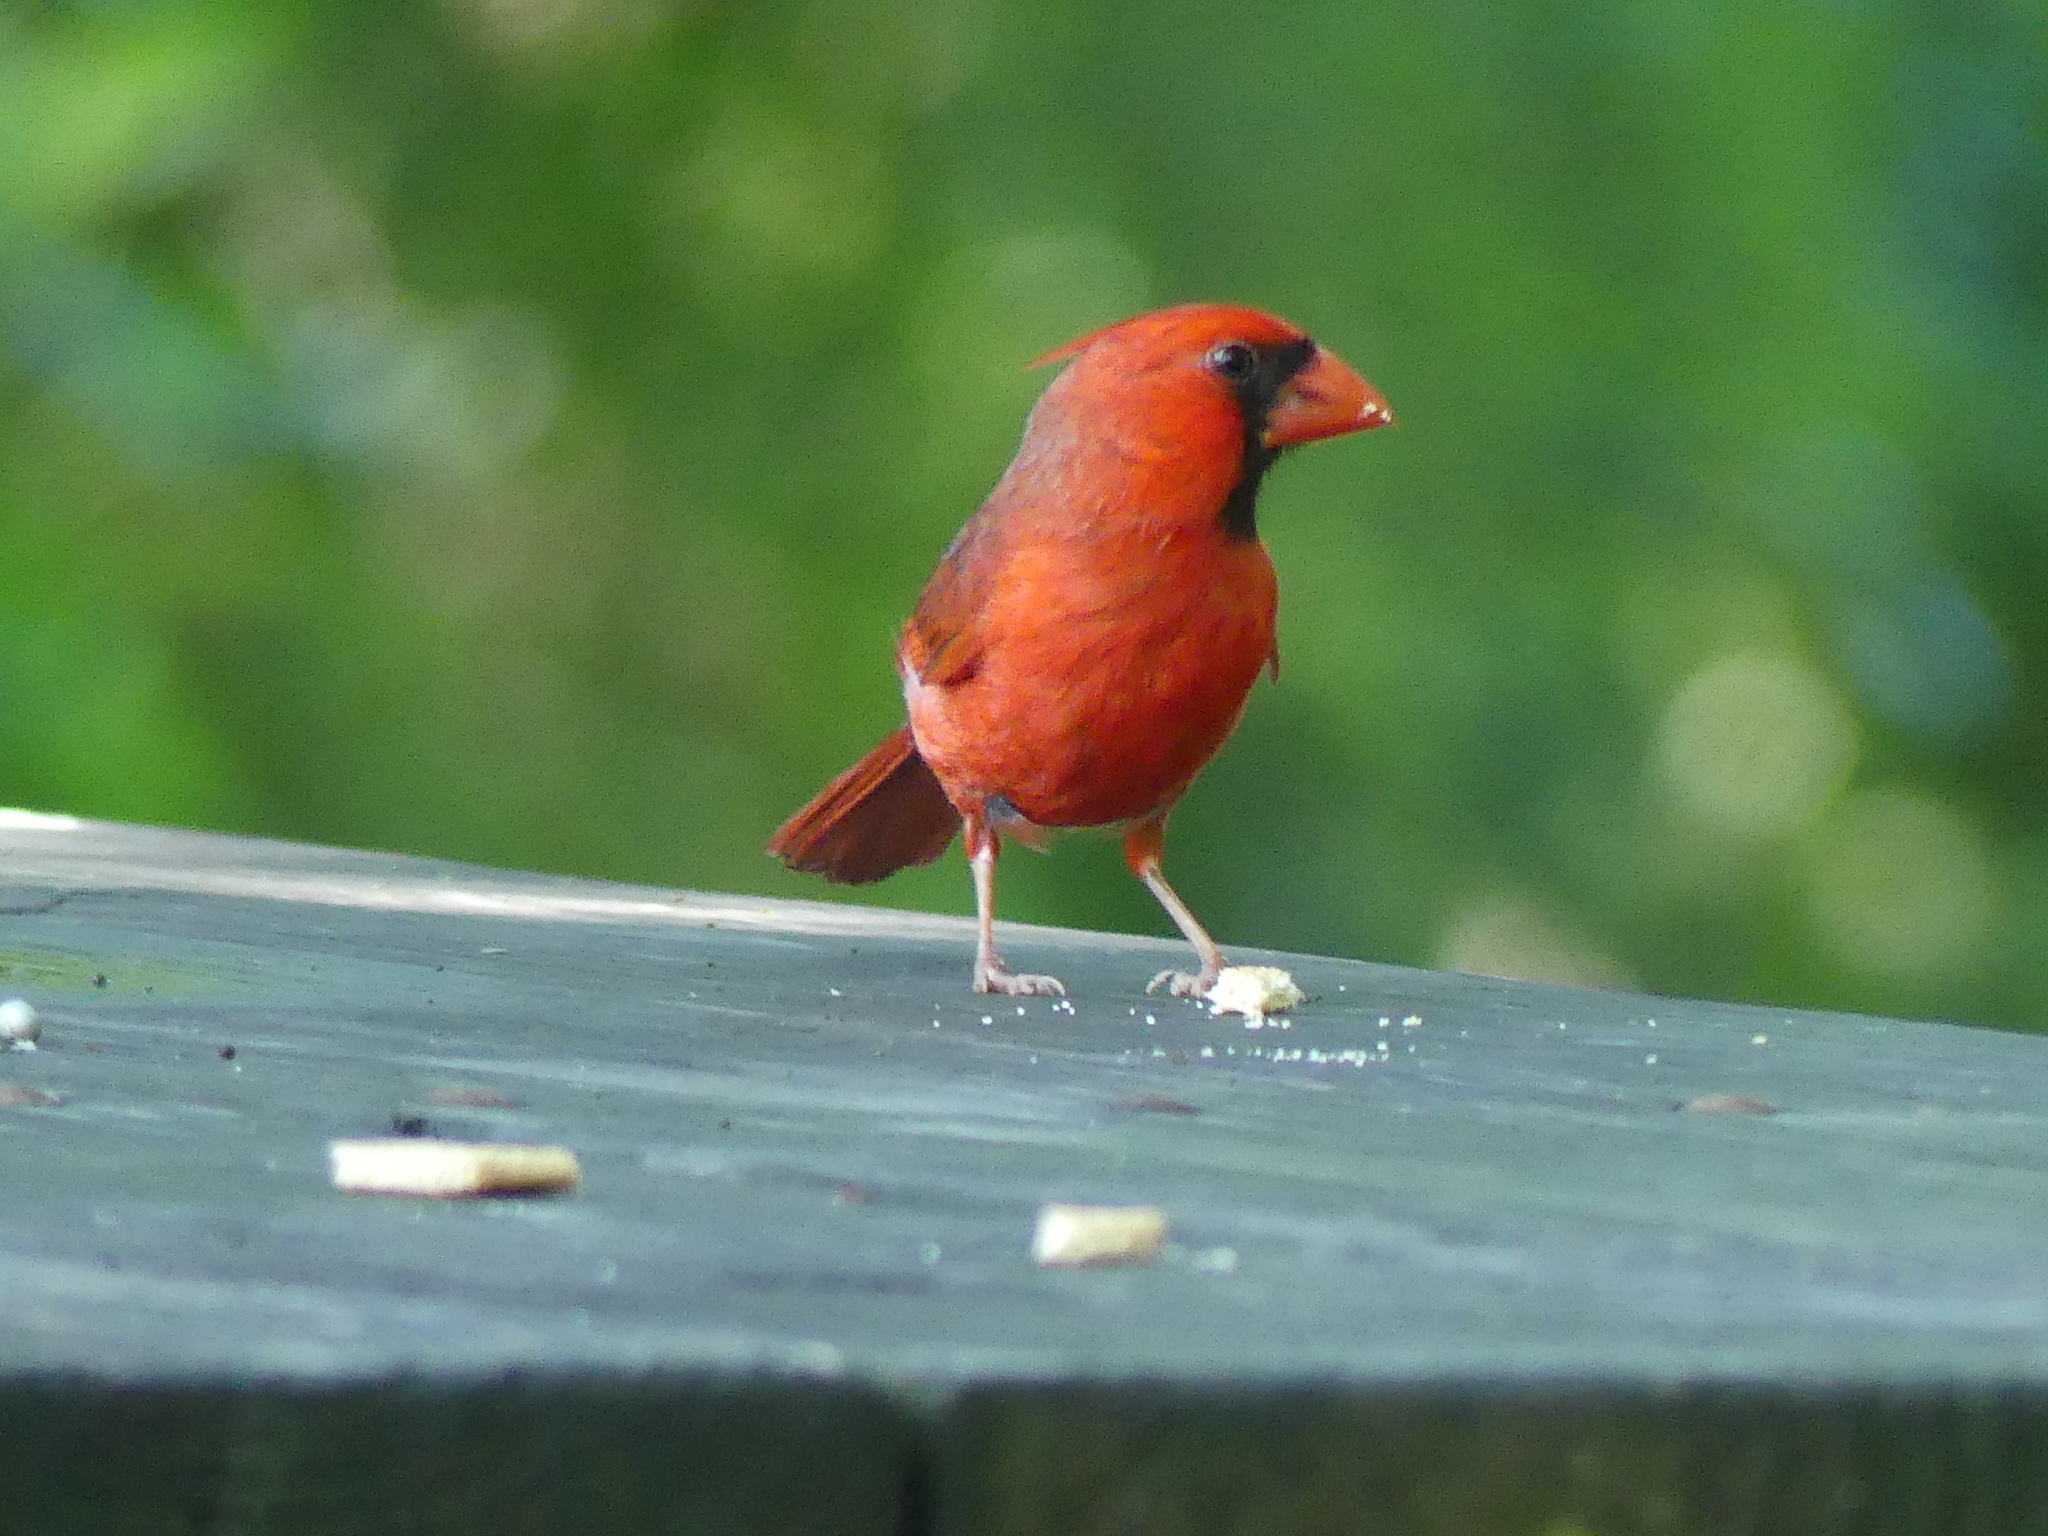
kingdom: Animalia
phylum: Chordata
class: Aves
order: Passeriformes
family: Cardinalidae
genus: Cardinalis
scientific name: Cardinalis cardinalis
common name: Northern cardinal
